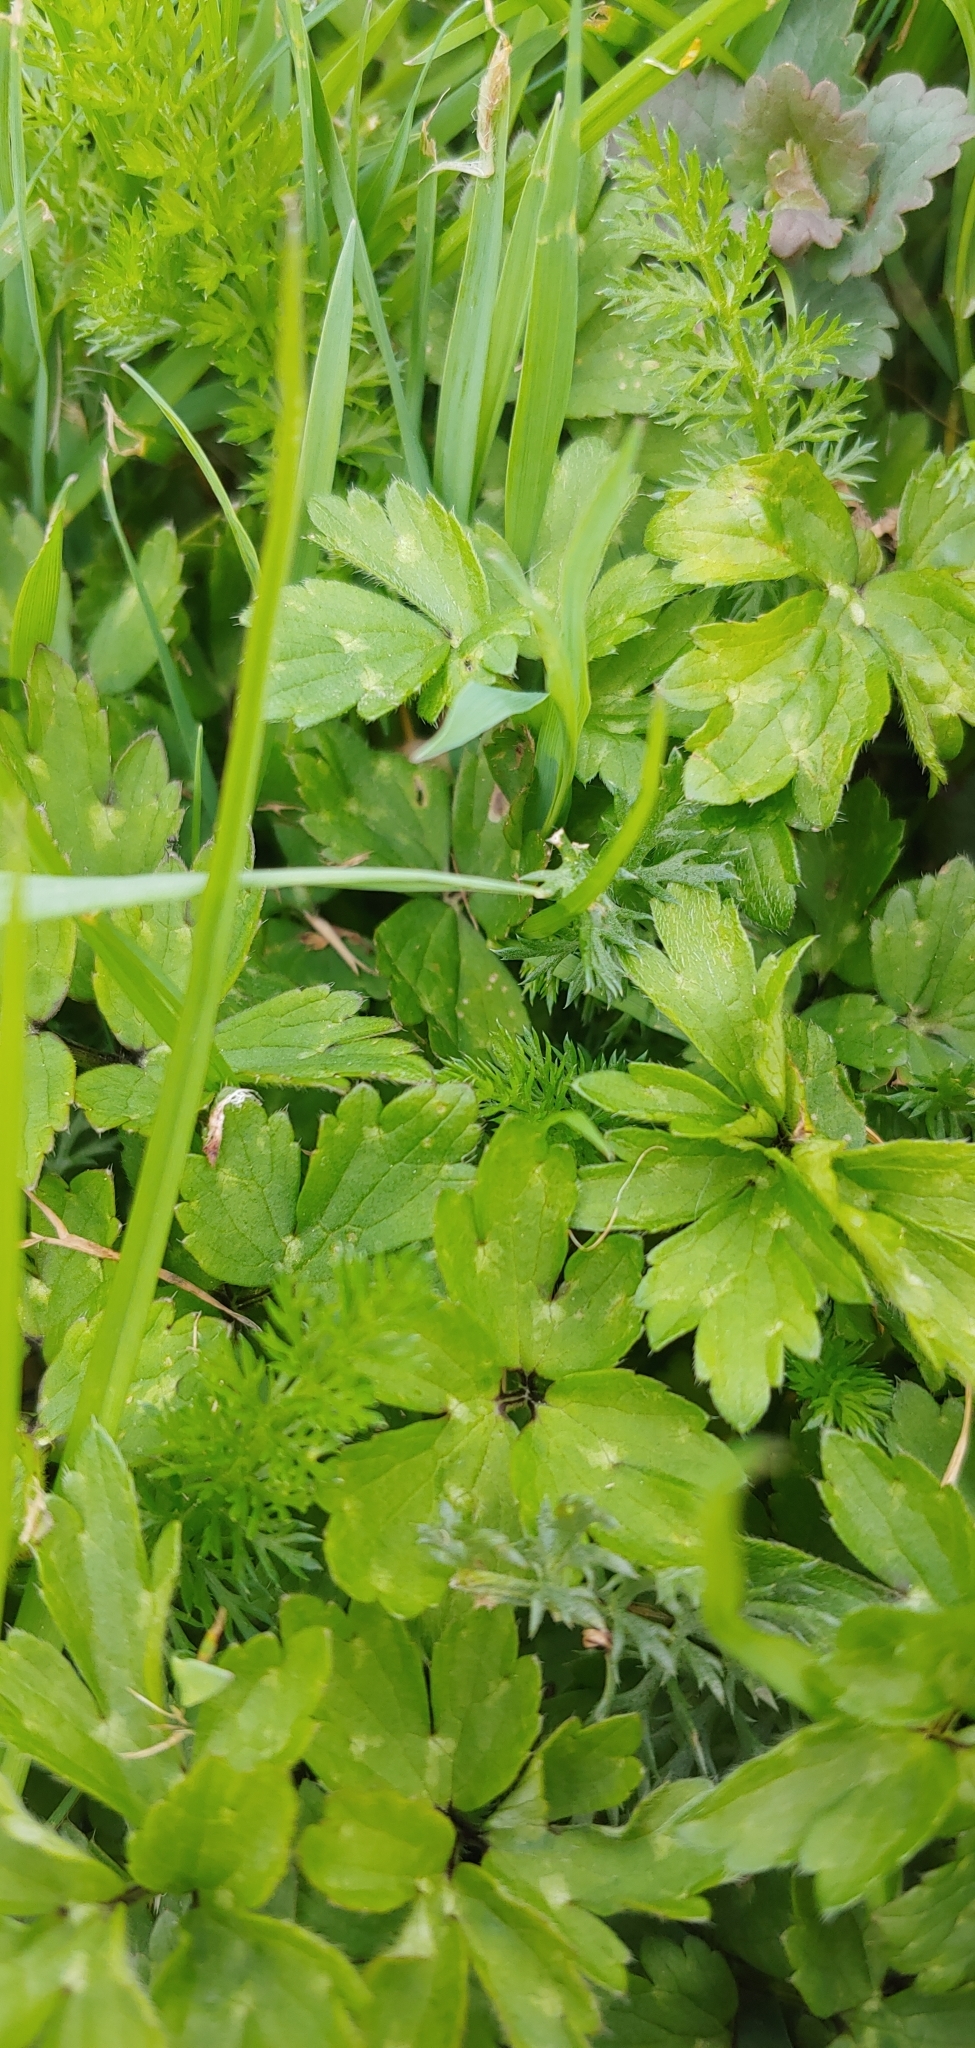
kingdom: Plantae
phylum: Tracheophyta
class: Magnoliopsida
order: Ranunculales
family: Ranunculaceae
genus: Ranunculus
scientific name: Ranunculus repens
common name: Creeping buttercup
